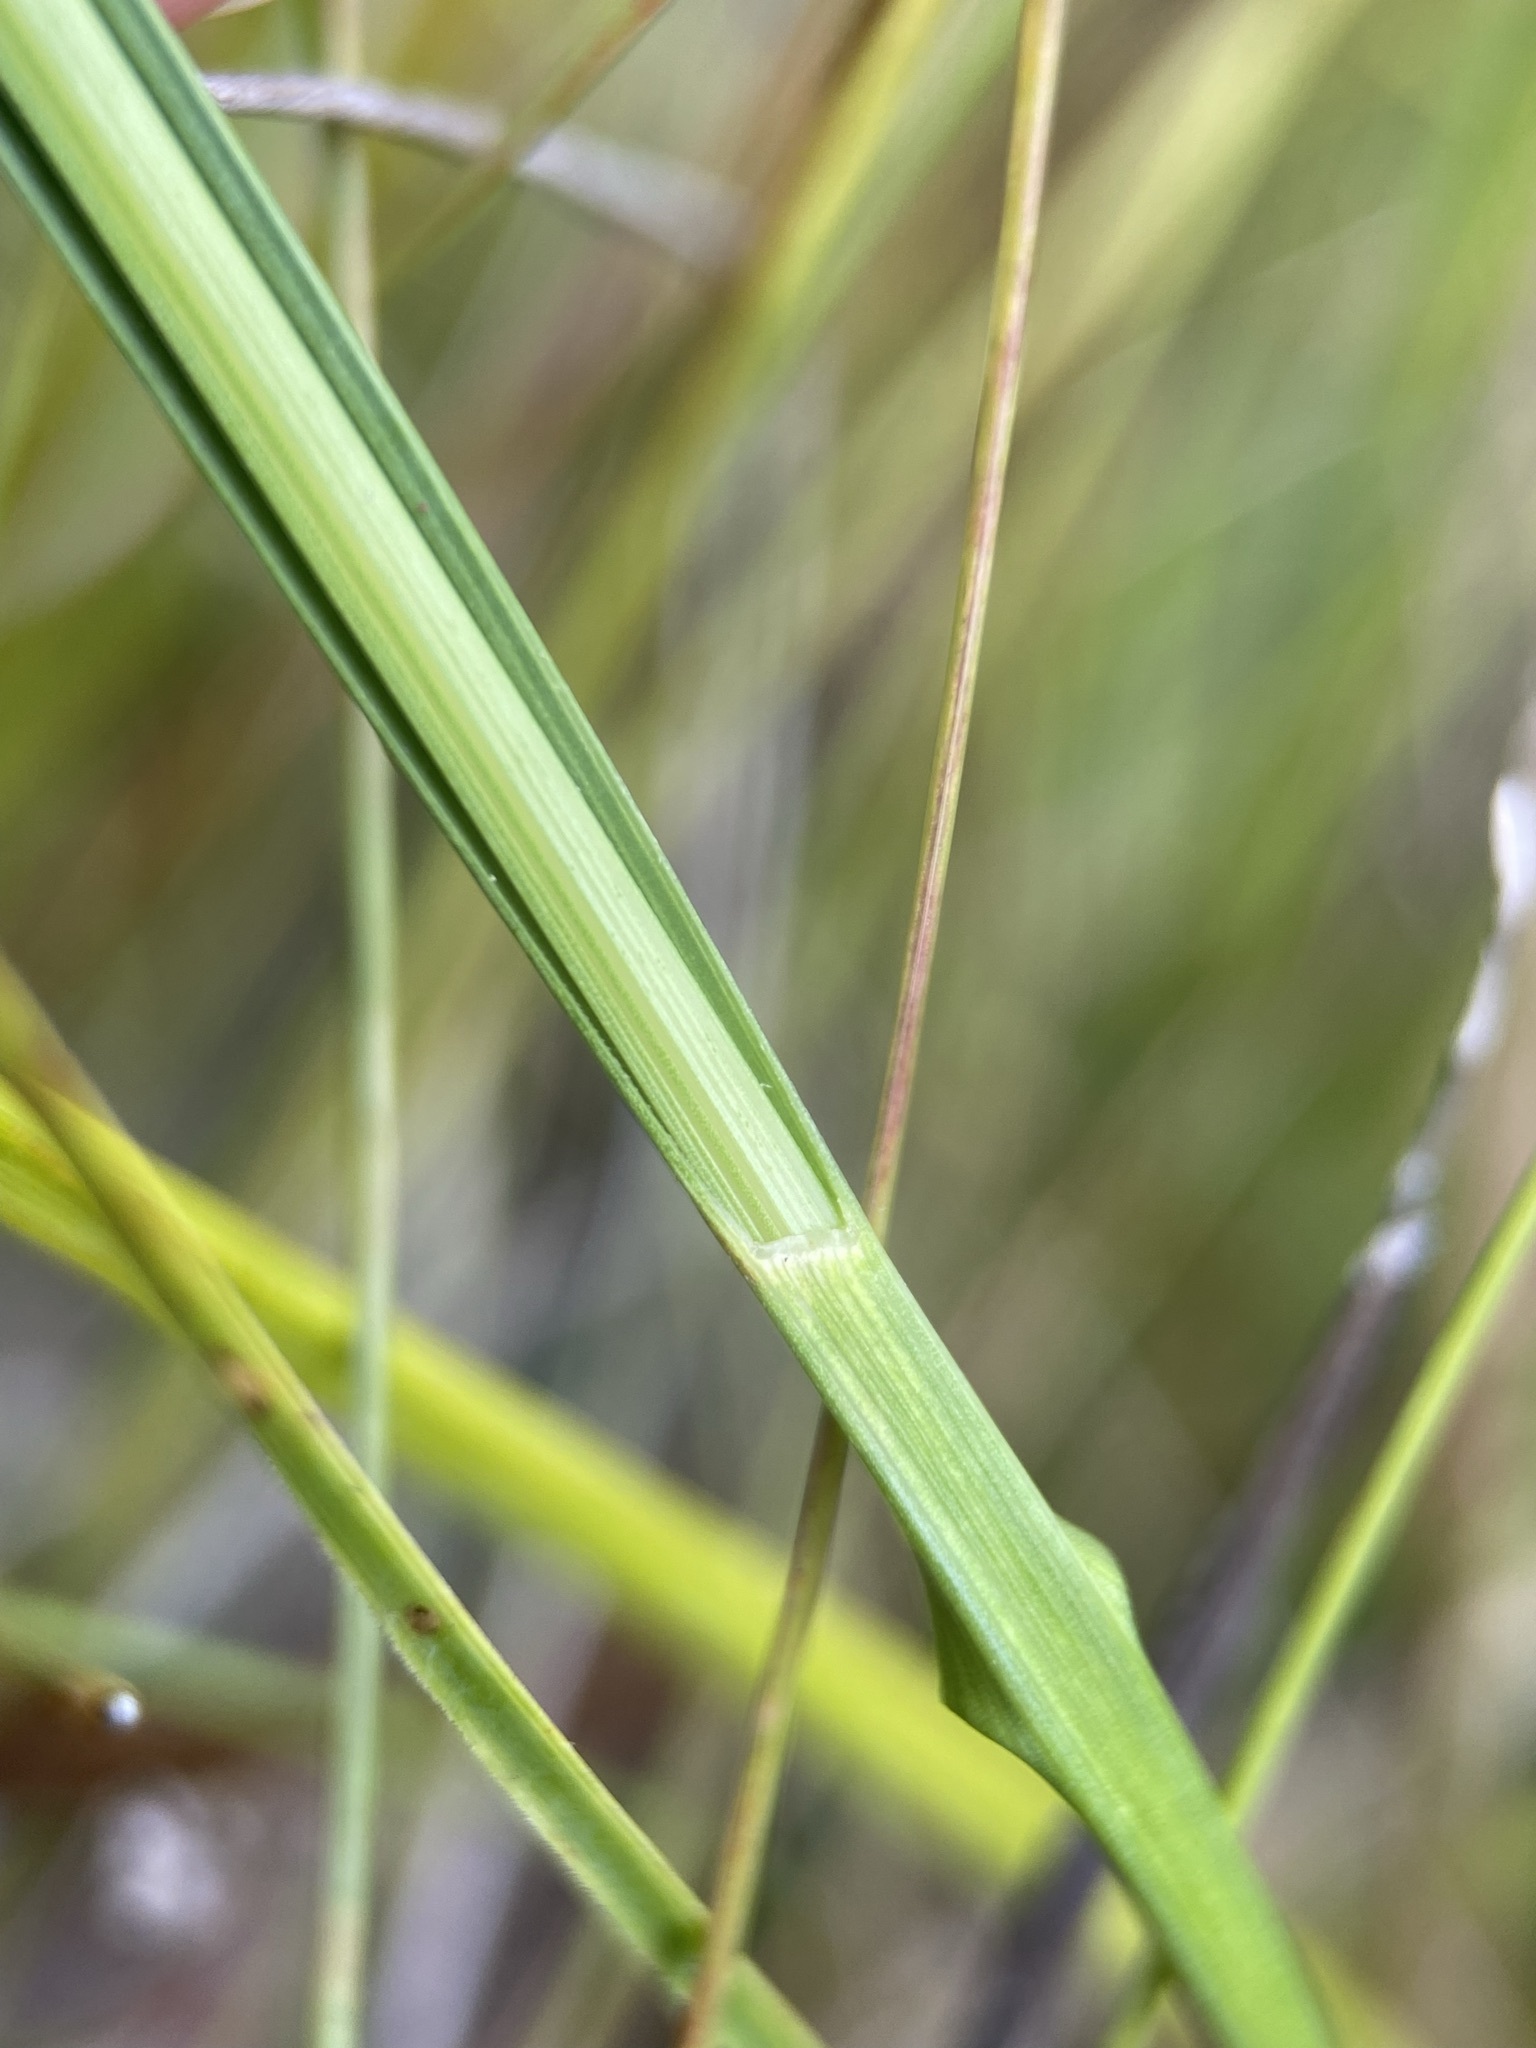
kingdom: Plantae
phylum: Tracheophyta
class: Liliopsida
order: Poales
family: Cyperaceae
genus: Rhynchospora
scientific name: Rhynchospora macra
